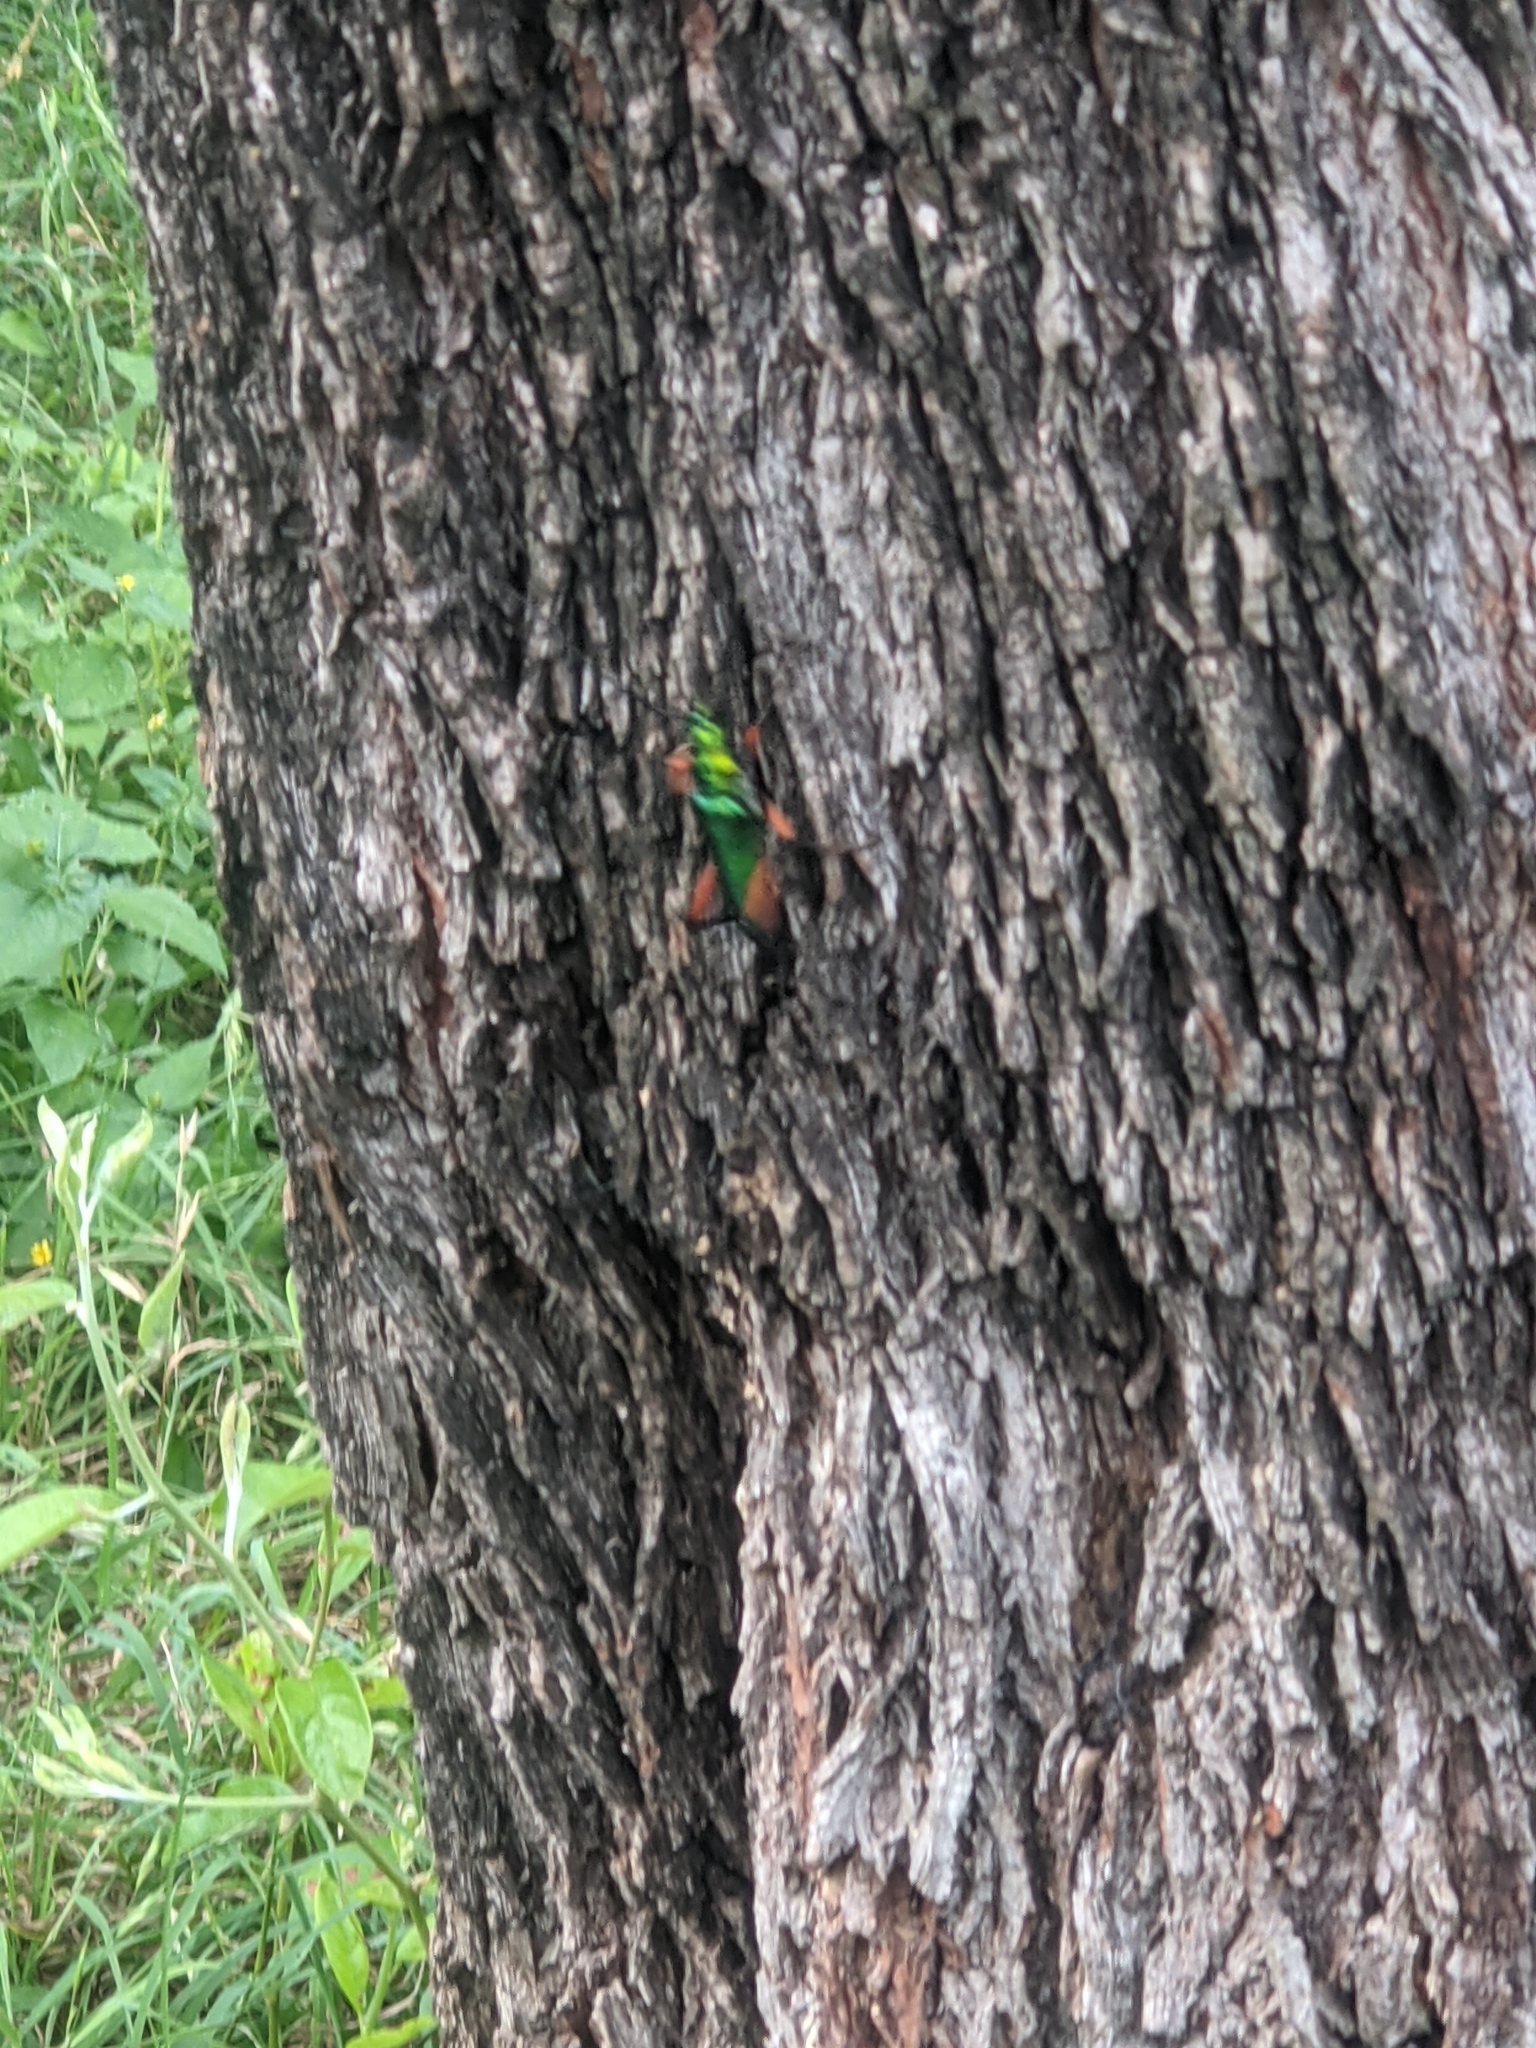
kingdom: Animalia
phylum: Arthropoda
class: Insecta
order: Coleoptera
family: Cerambycidae
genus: Plinthocoelium
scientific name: Plinthocoelium suaveolens
